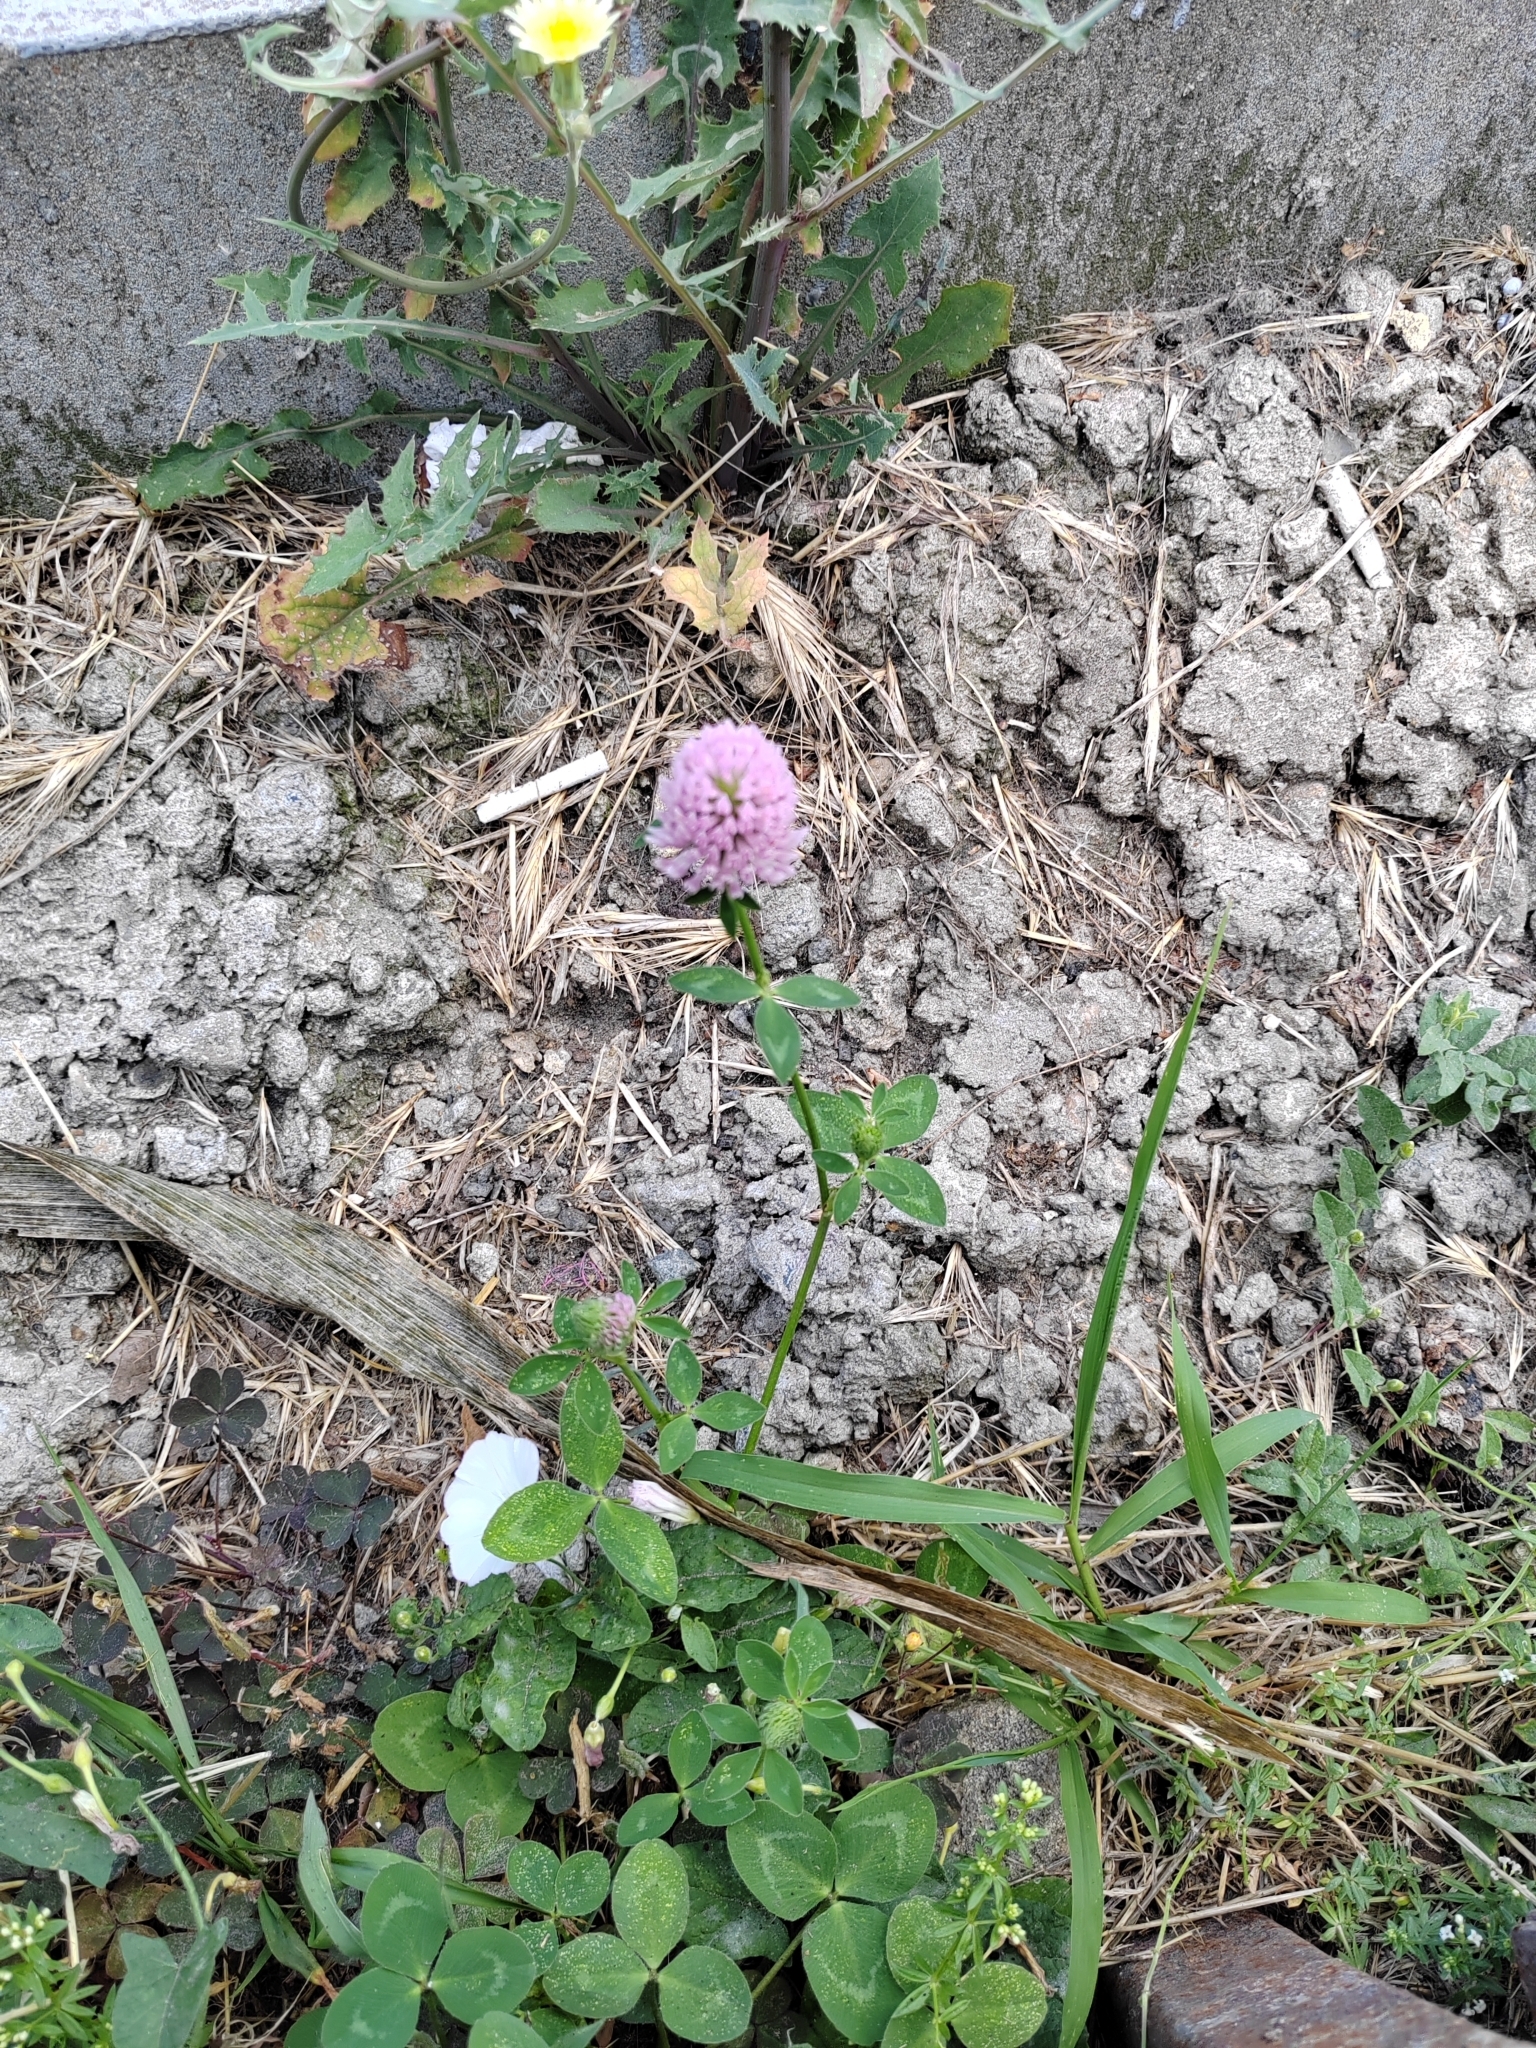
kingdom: Plantae
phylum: Tracheophyta
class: Magnoliopsida
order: Fabales
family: Fabaceae
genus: Trifolium
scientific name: Trifolium pratense
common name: Red clover
